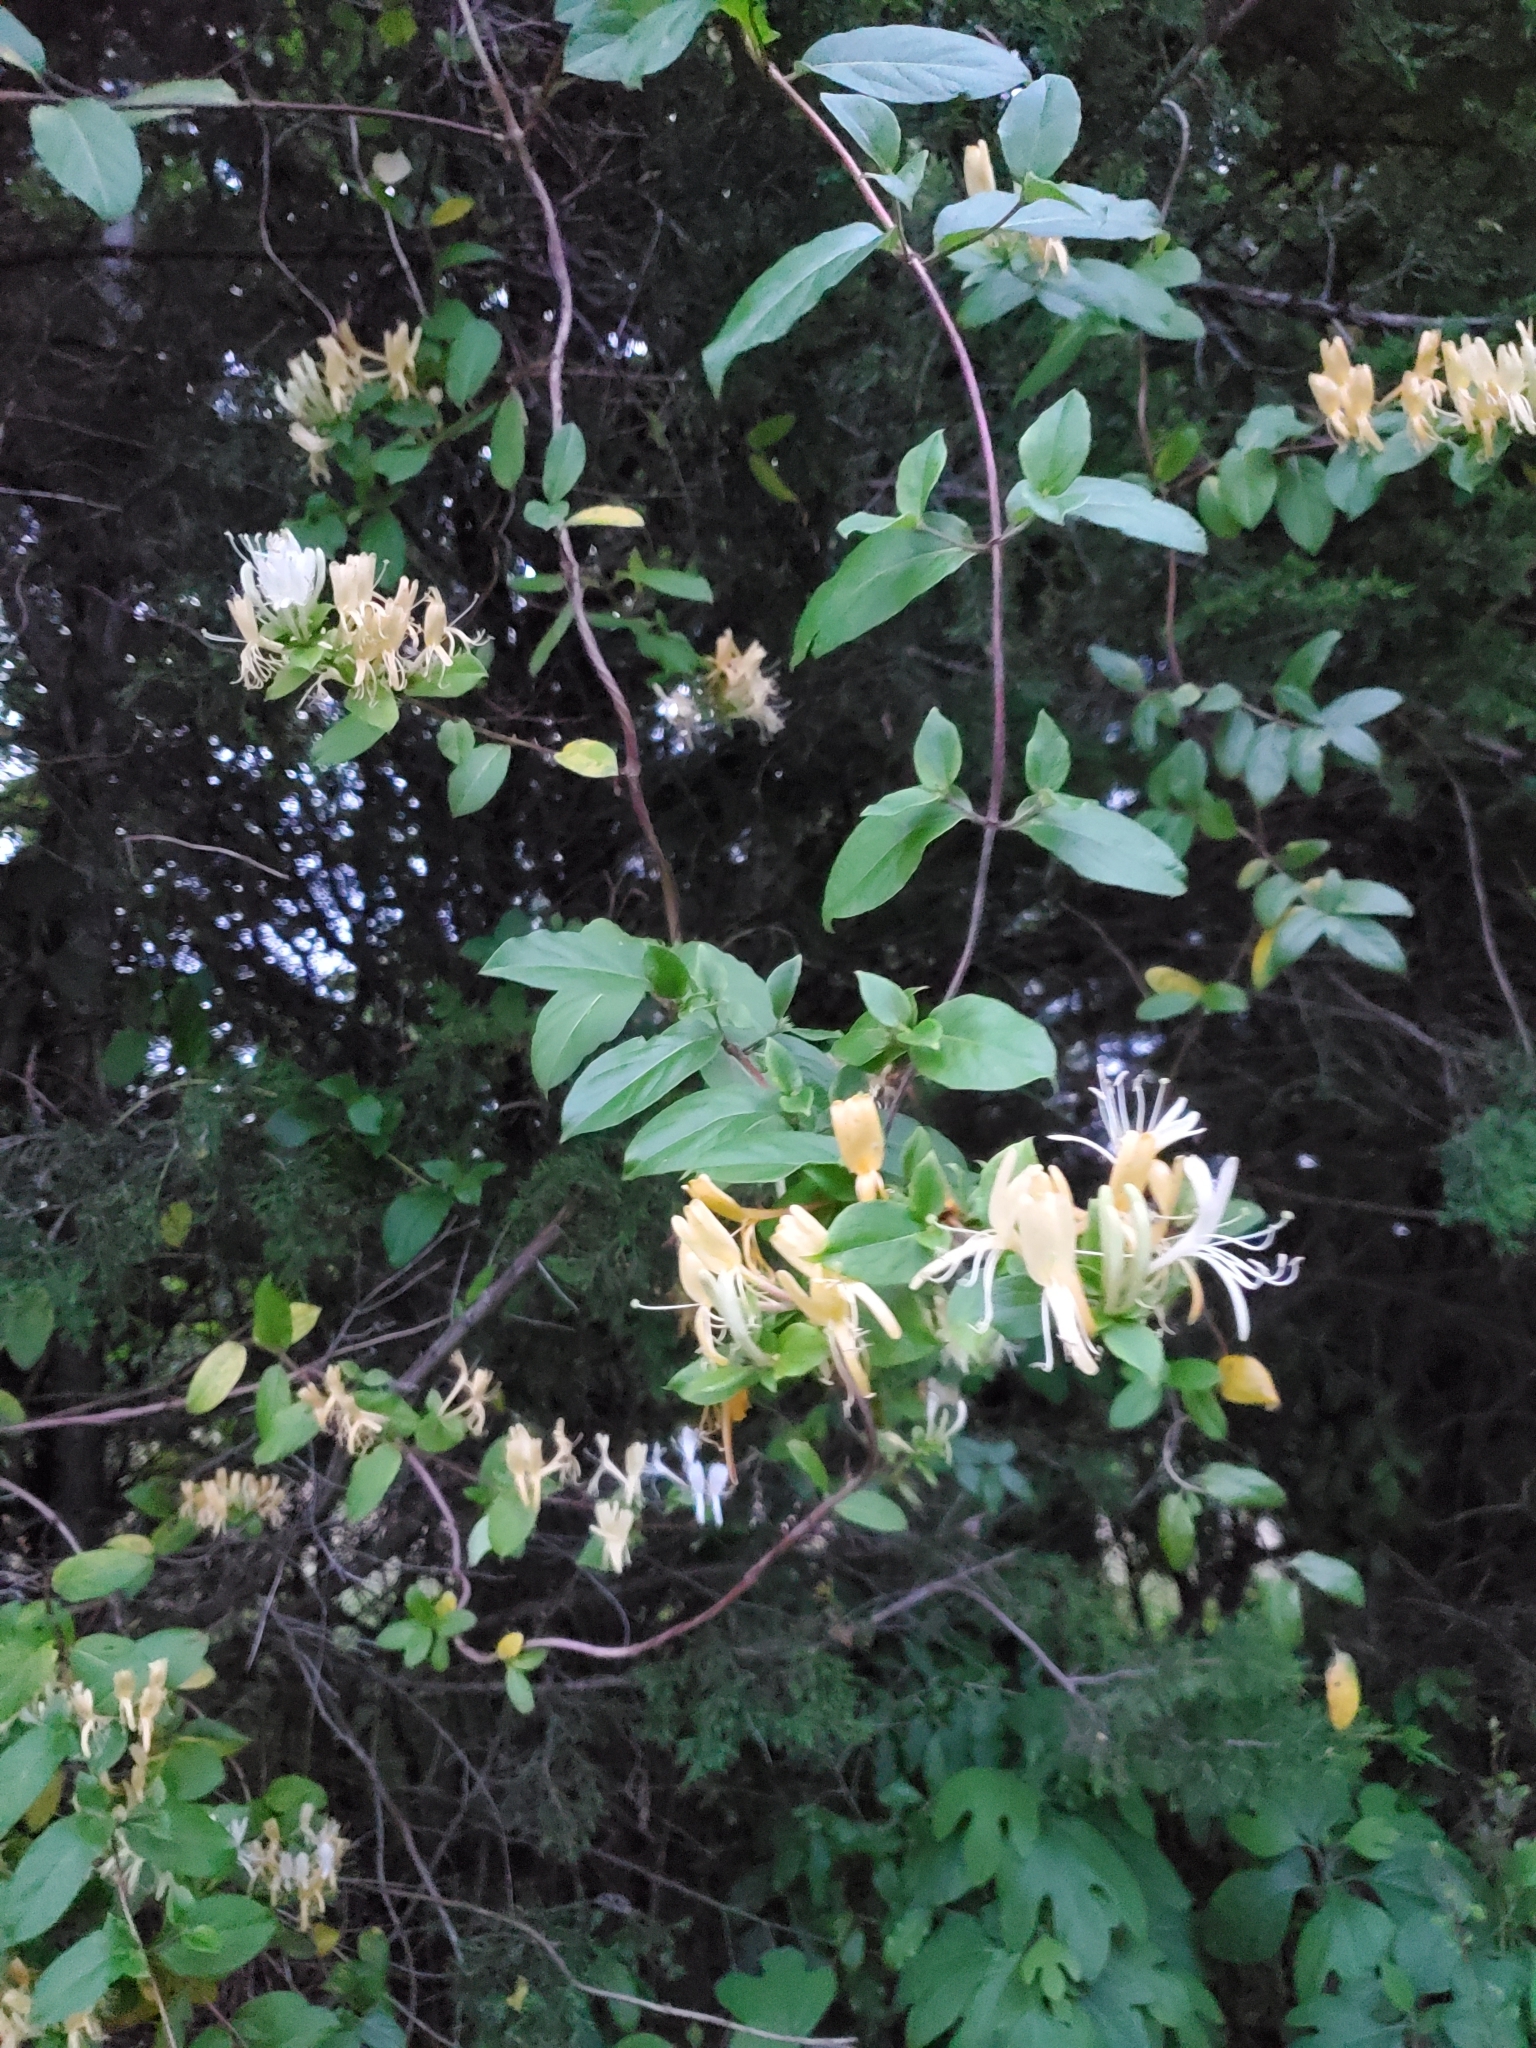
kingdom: Plantae
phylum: Tracheophyta
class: Magnoliopsida
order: Dipsacales
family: Caprifoliaceae
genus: Lonicera
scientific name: Lonicera japonica
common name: Japanese honeysuckle
